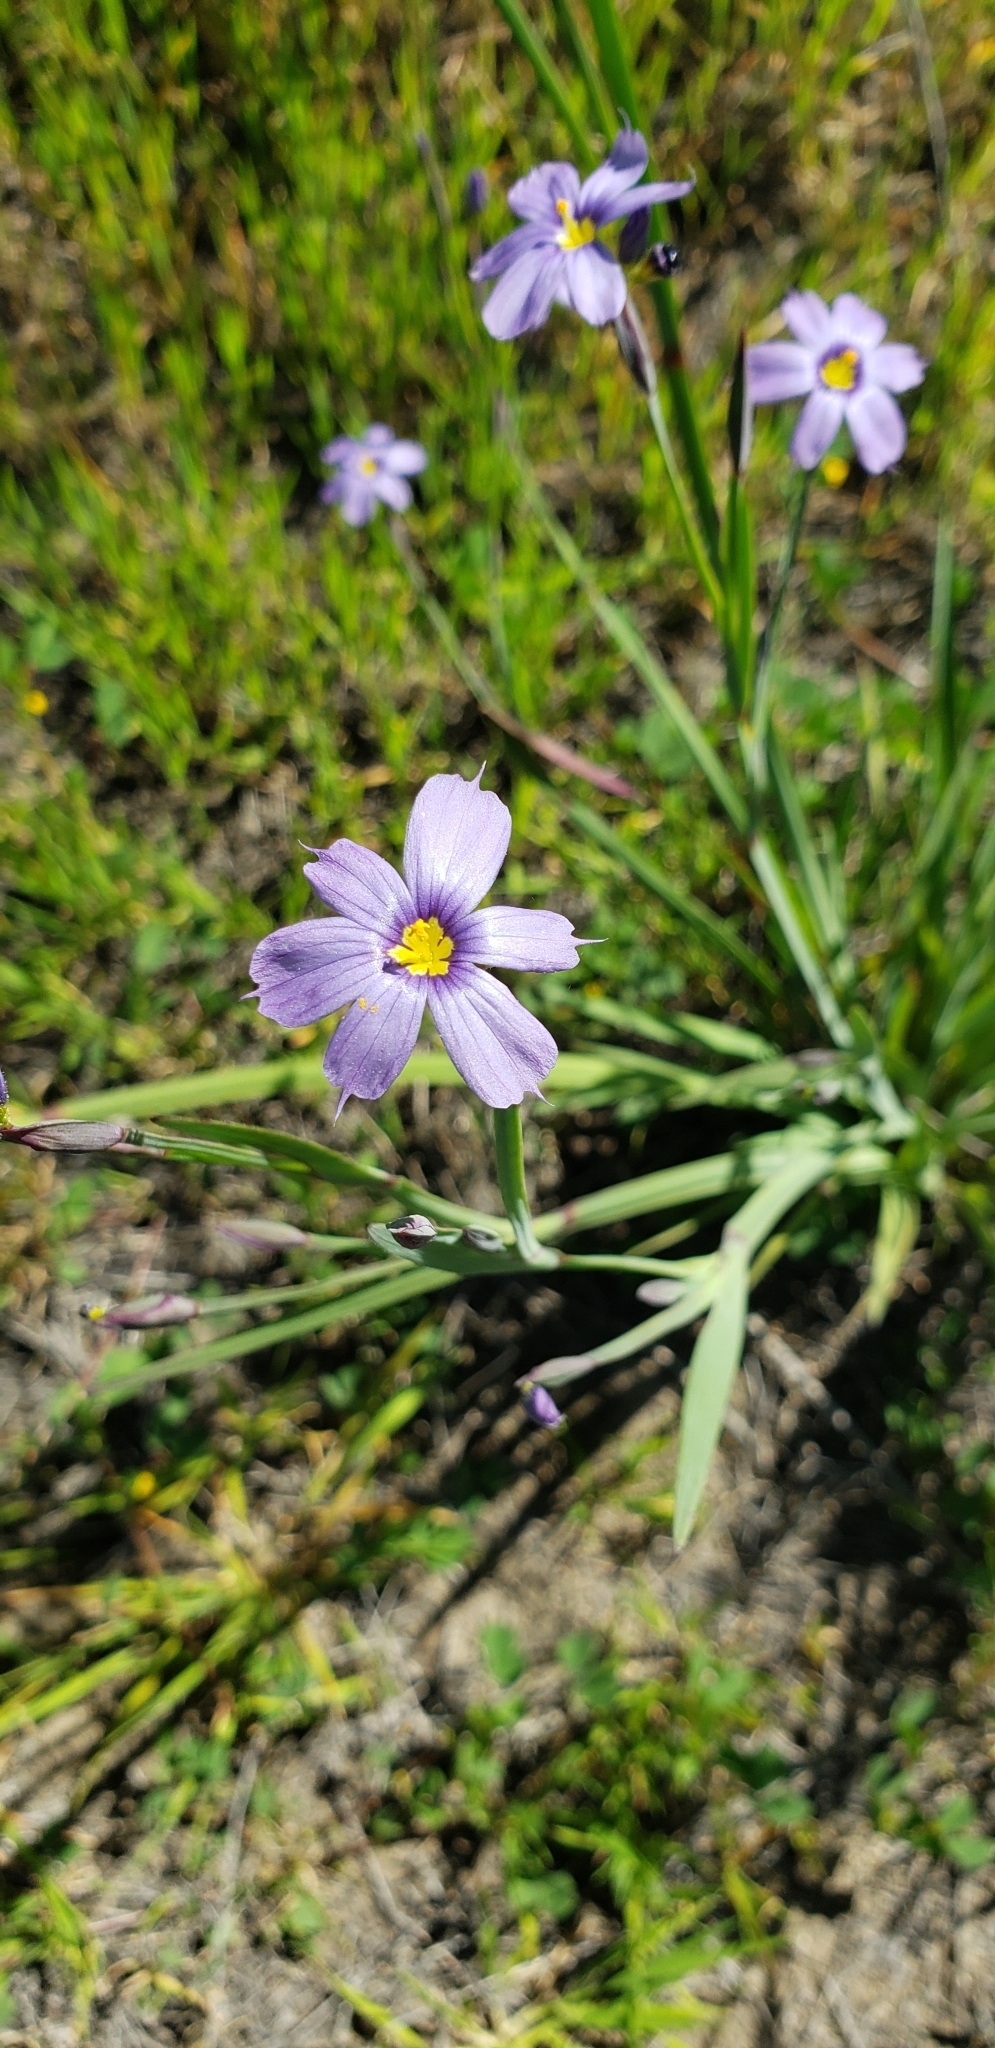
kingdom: Plantae
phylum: Tracheophyta
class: Liliopsida
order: Asparagales
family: Iridaceae
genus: Sisyrinchium
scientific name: Sisyrinchium bellum
